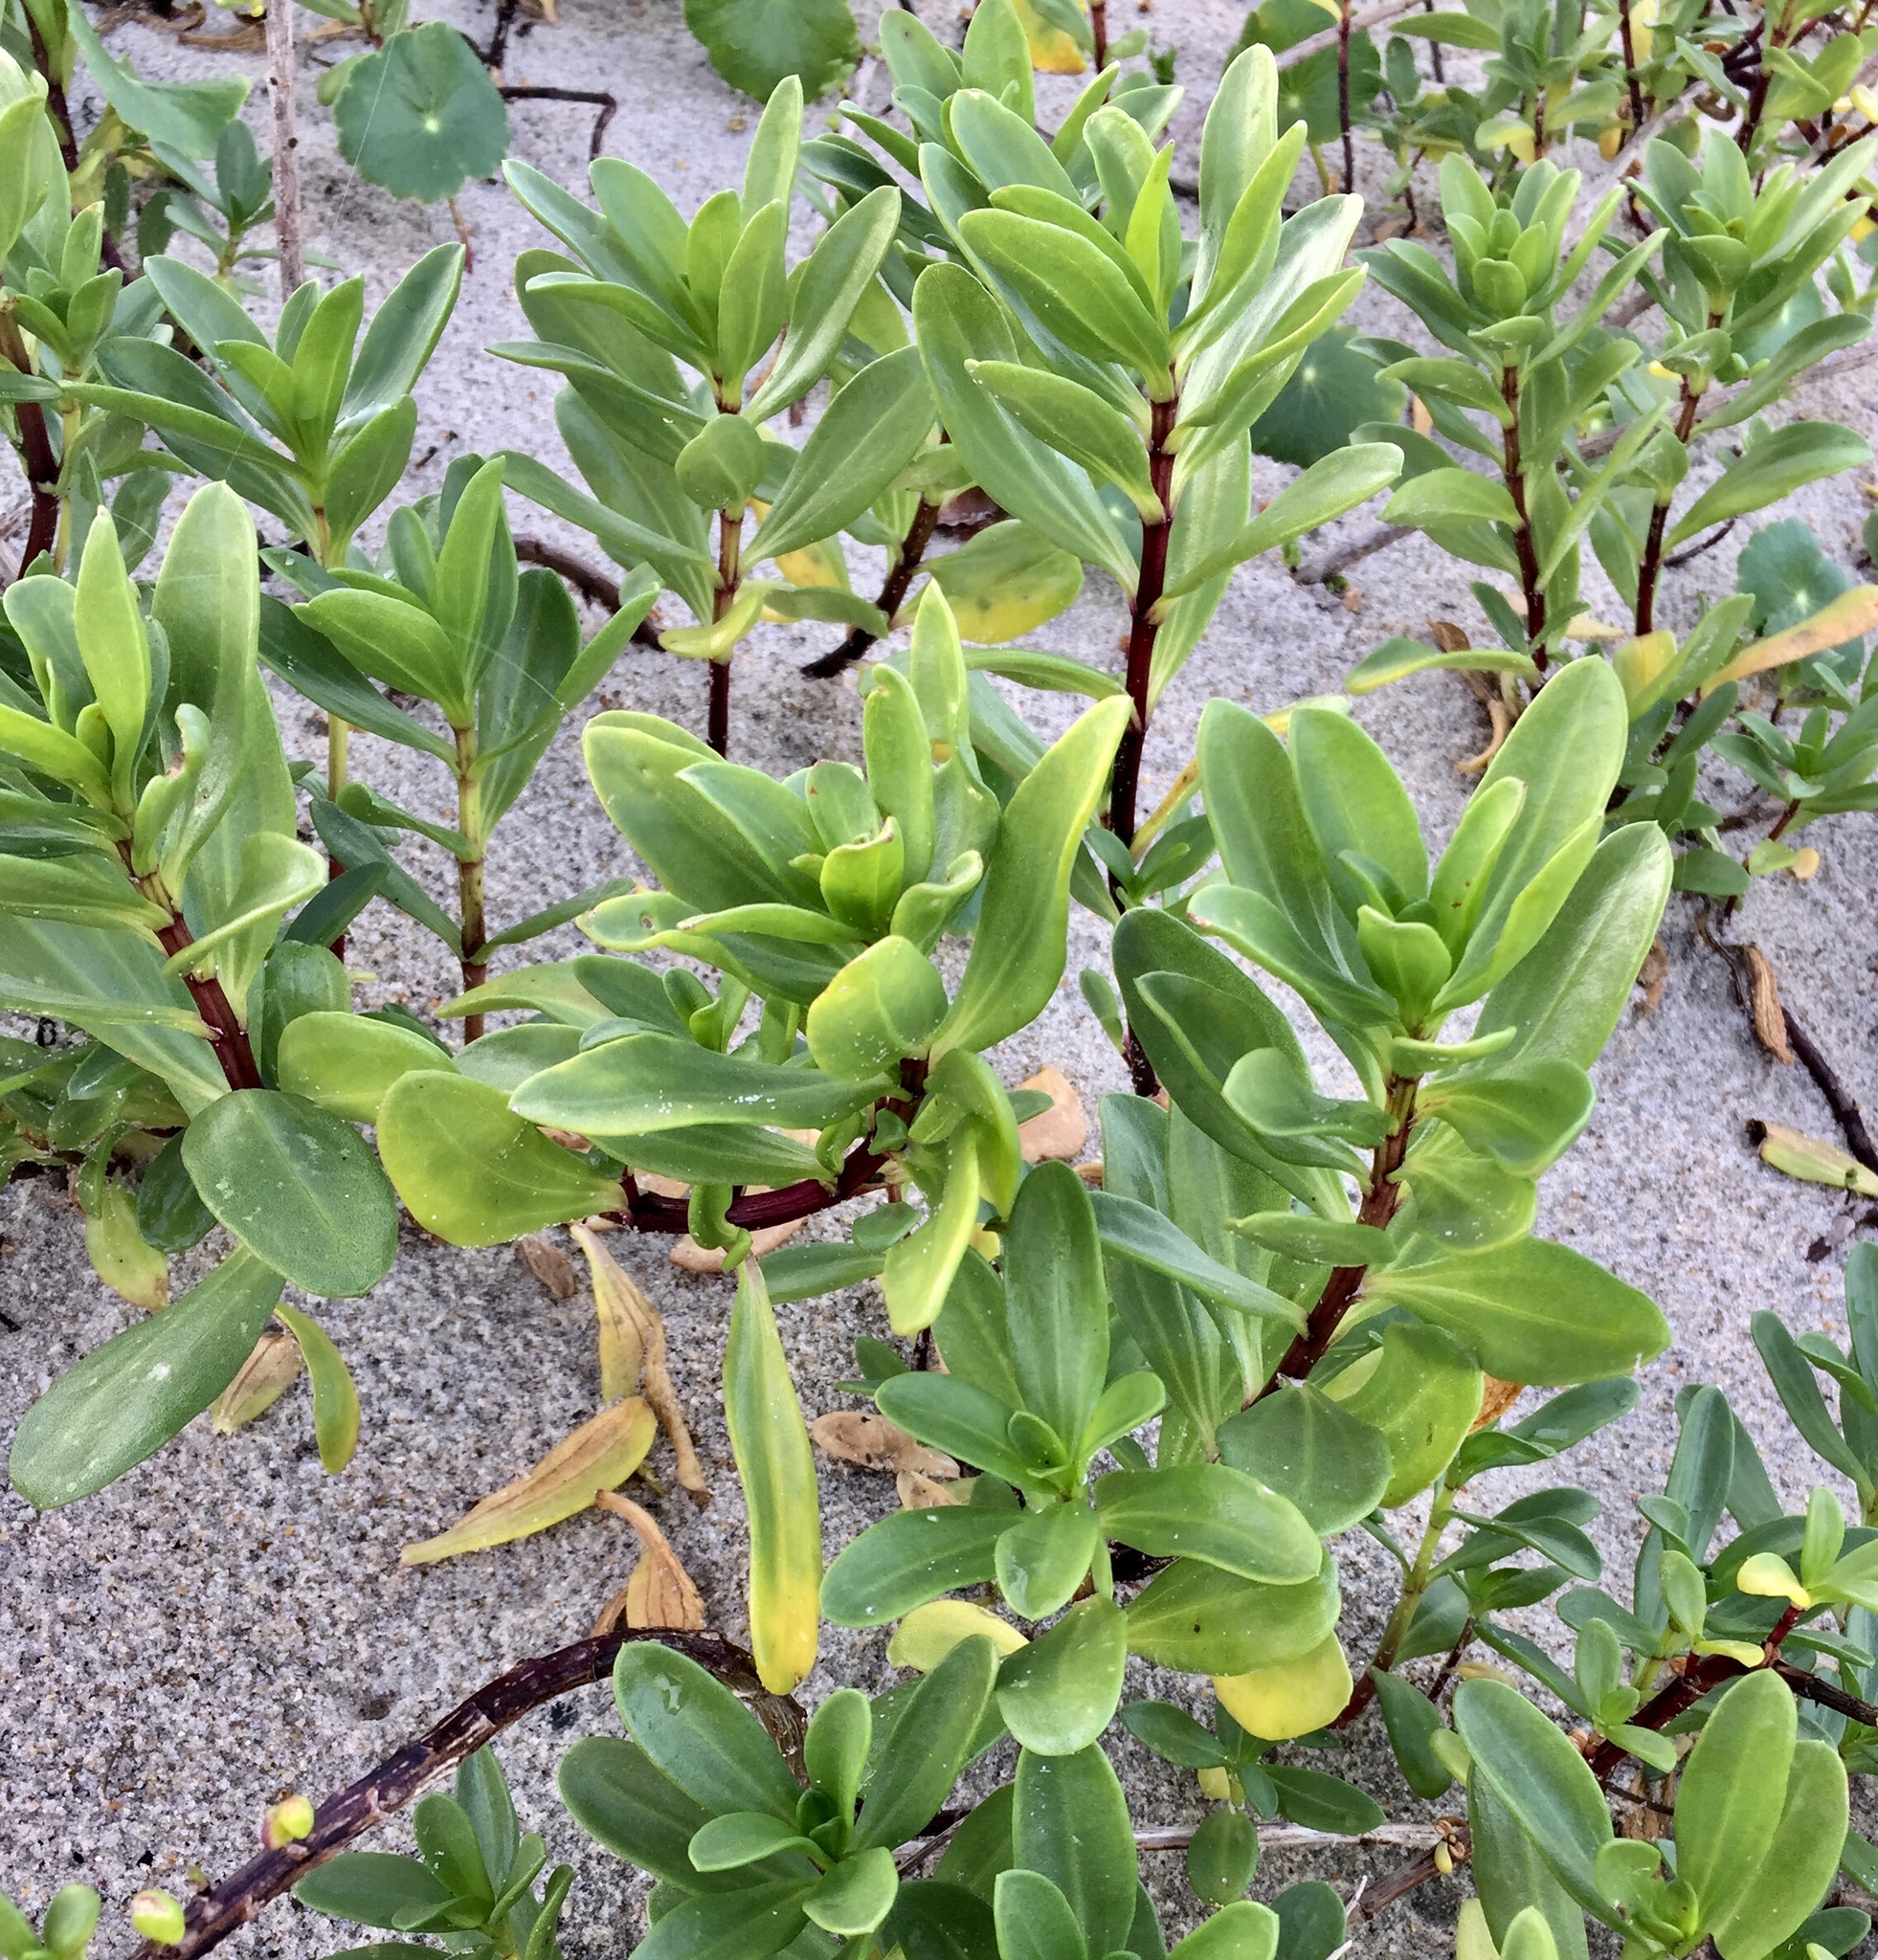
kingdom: Plantae
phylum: Tracheophyta
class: Magnoliopsida
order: Asterales
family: Asteraceae
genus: Iva
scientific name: Iva imbricata
